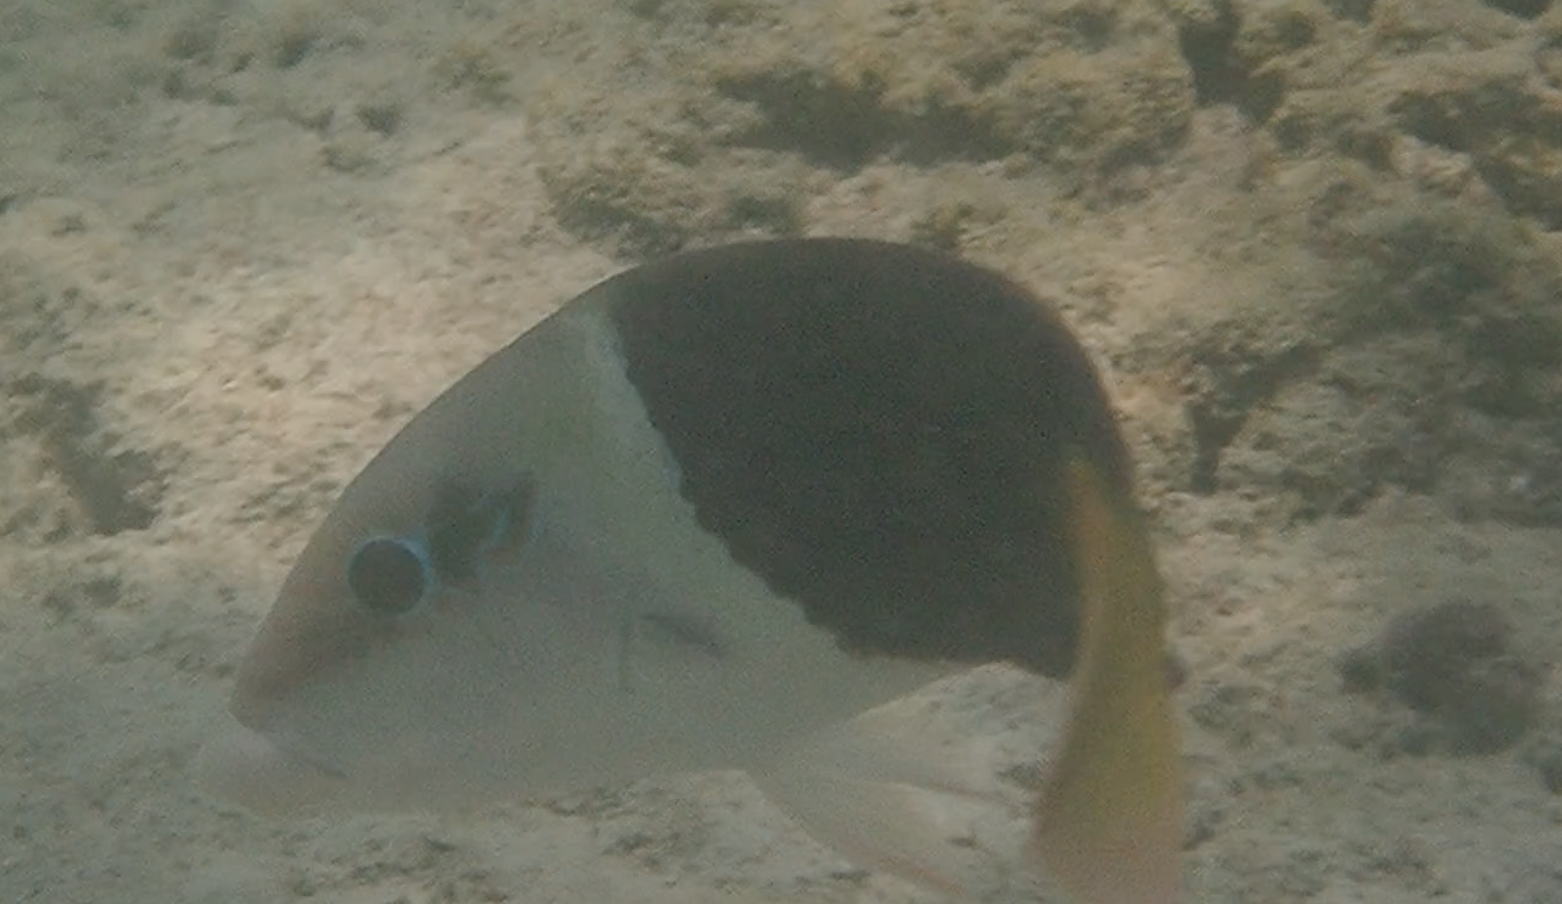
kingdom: Animalia
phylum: Chordata
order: Perciformes
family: Labridae
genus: Hemigymnus
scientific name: Hemigymnus melapterus
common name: Blackeye thicklip
